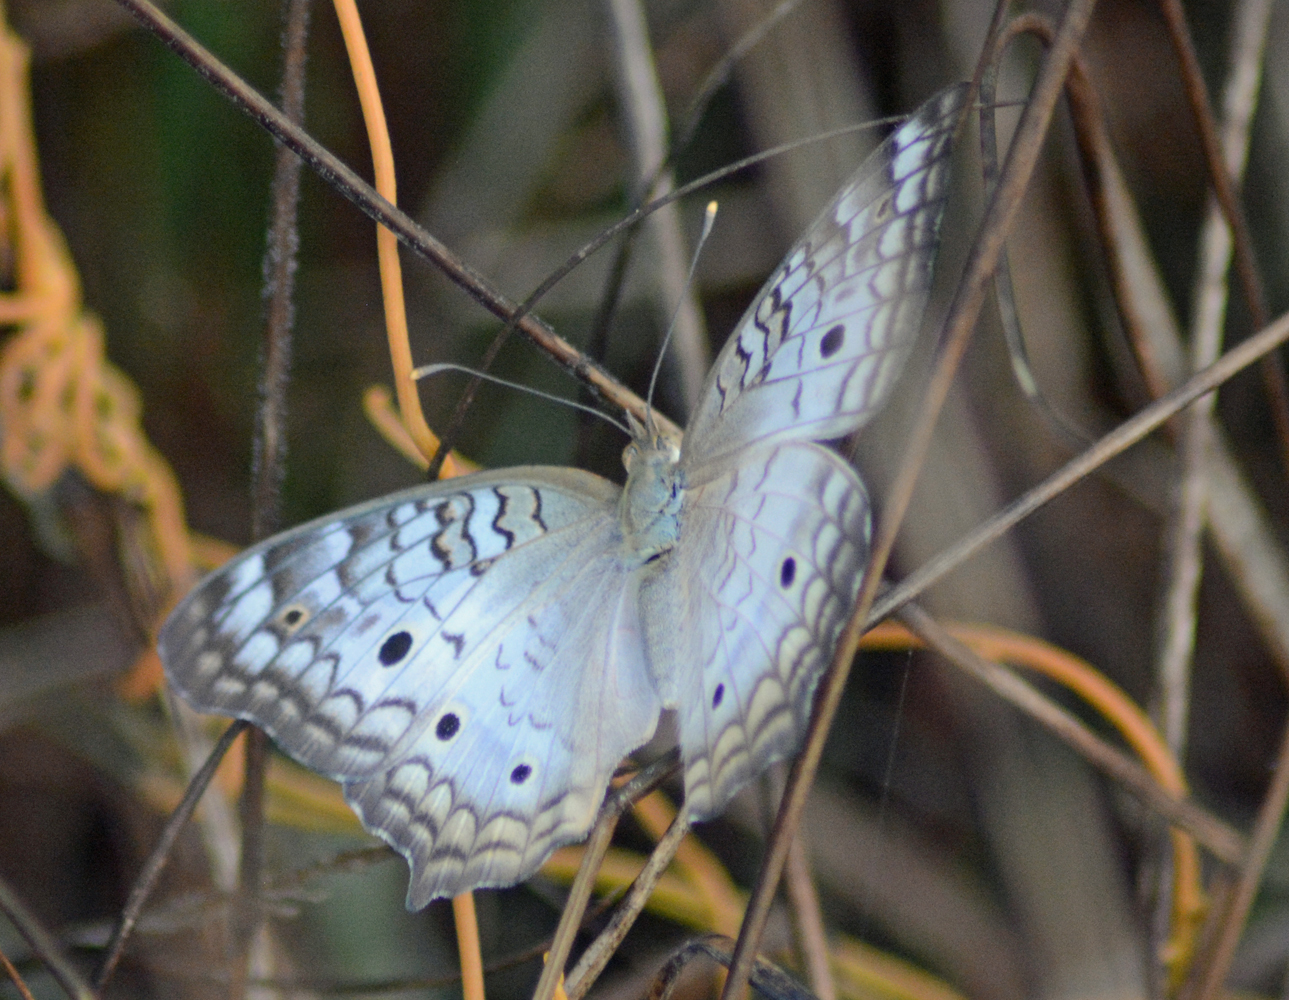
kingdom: Animalia
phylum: Arthropoda
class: Insecta
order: Lepidoptera
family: Nymphalidae
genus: Anartia
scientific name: Anartia jatrophae
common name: White peacock
